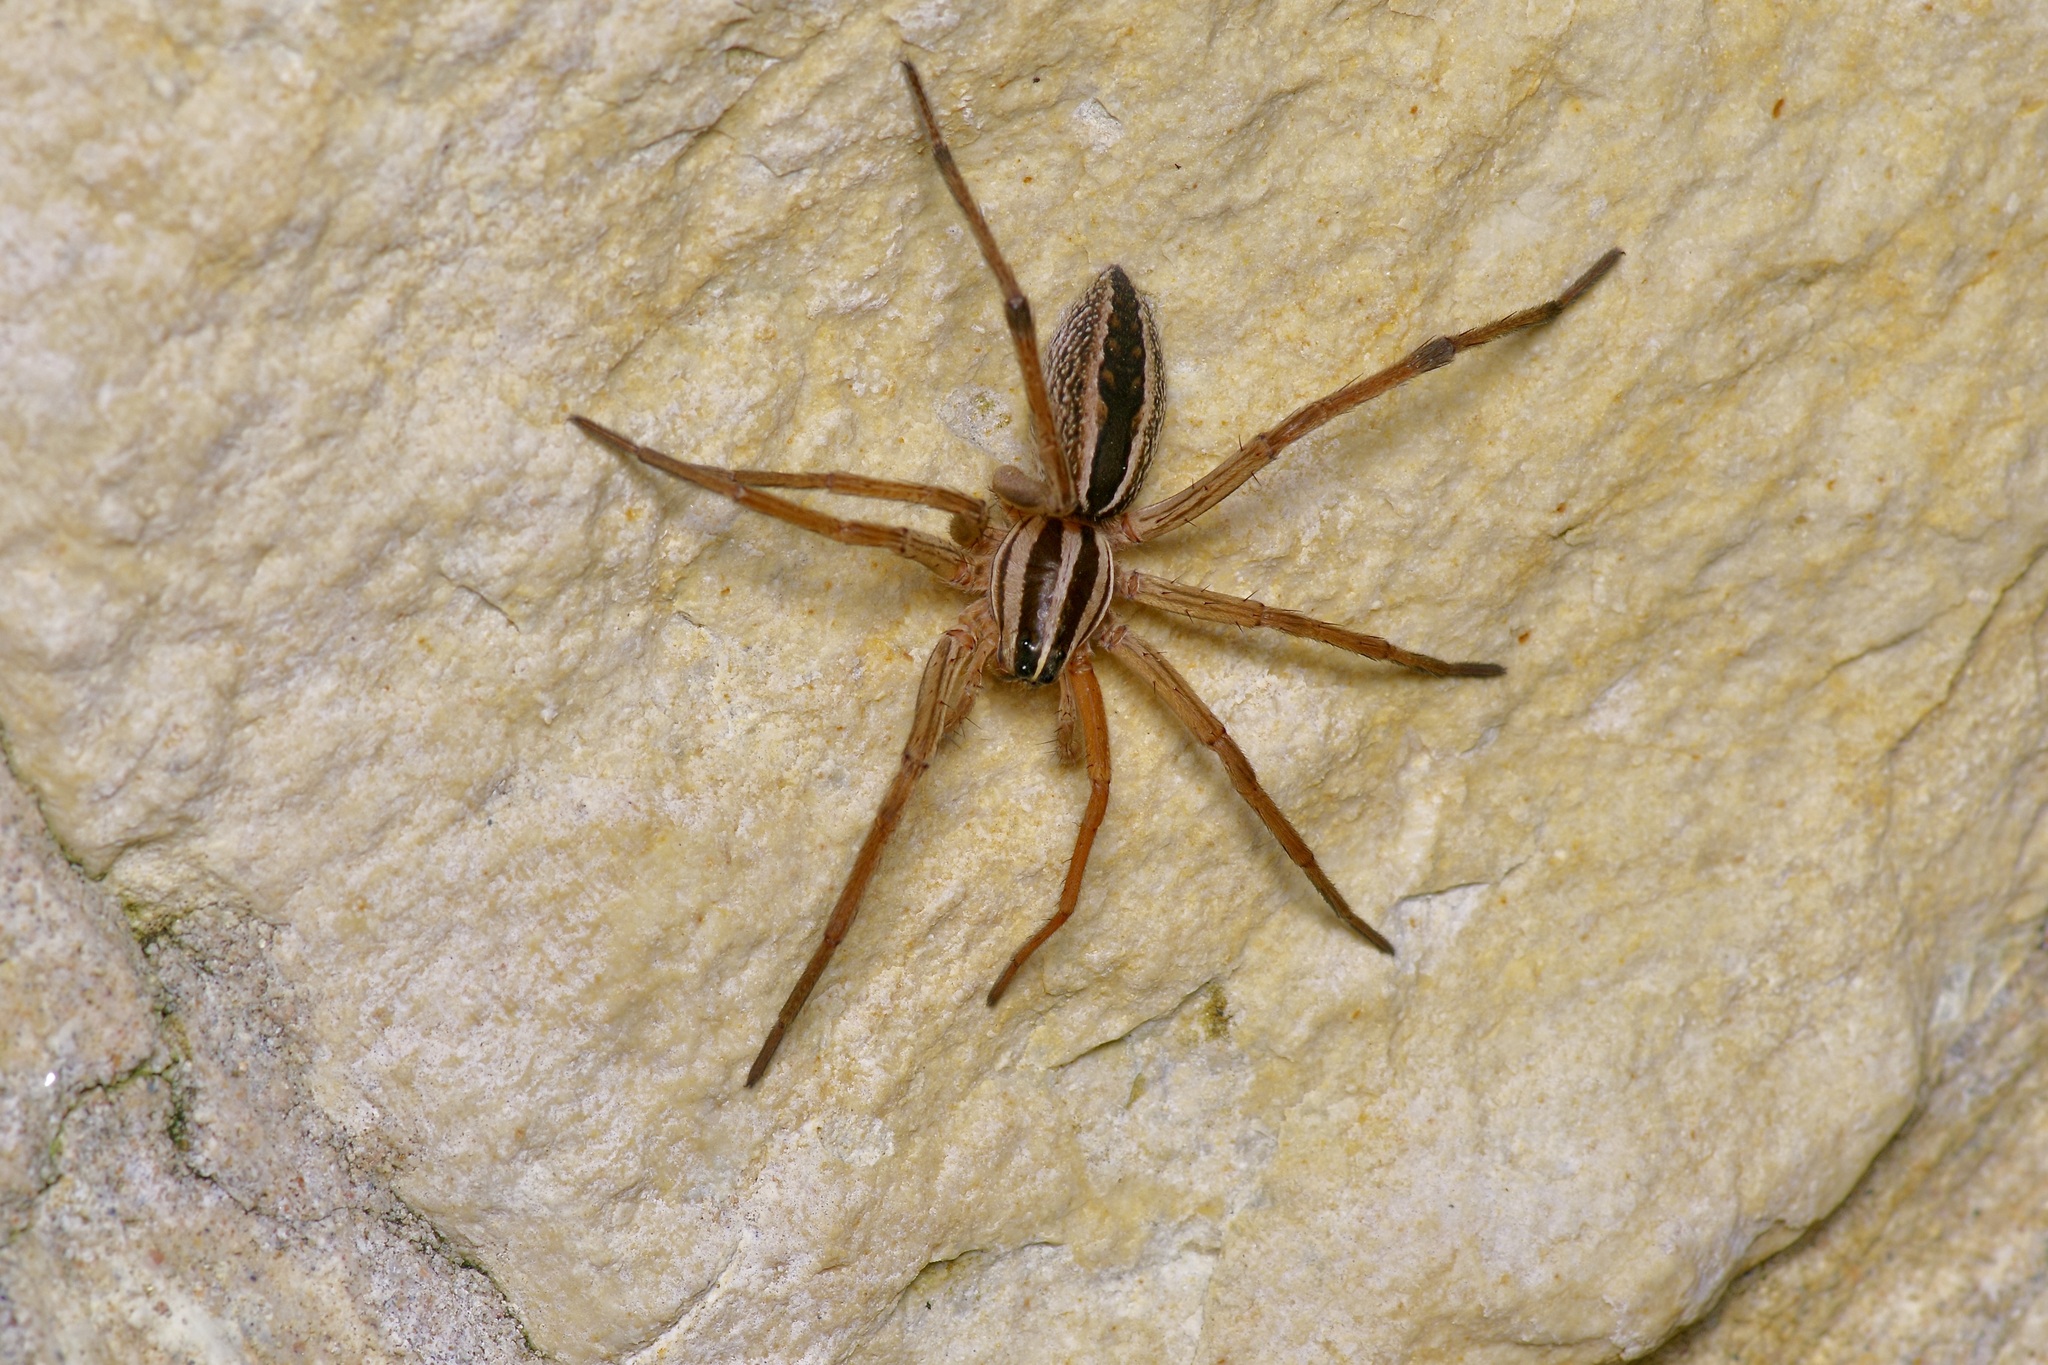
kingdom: Animalia
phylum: Arthropoda
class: Arachnida
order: Araneae
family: Lycosidae
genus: Rabidosa
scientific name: Rabidosa rabida
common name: Rabid wolf spider
